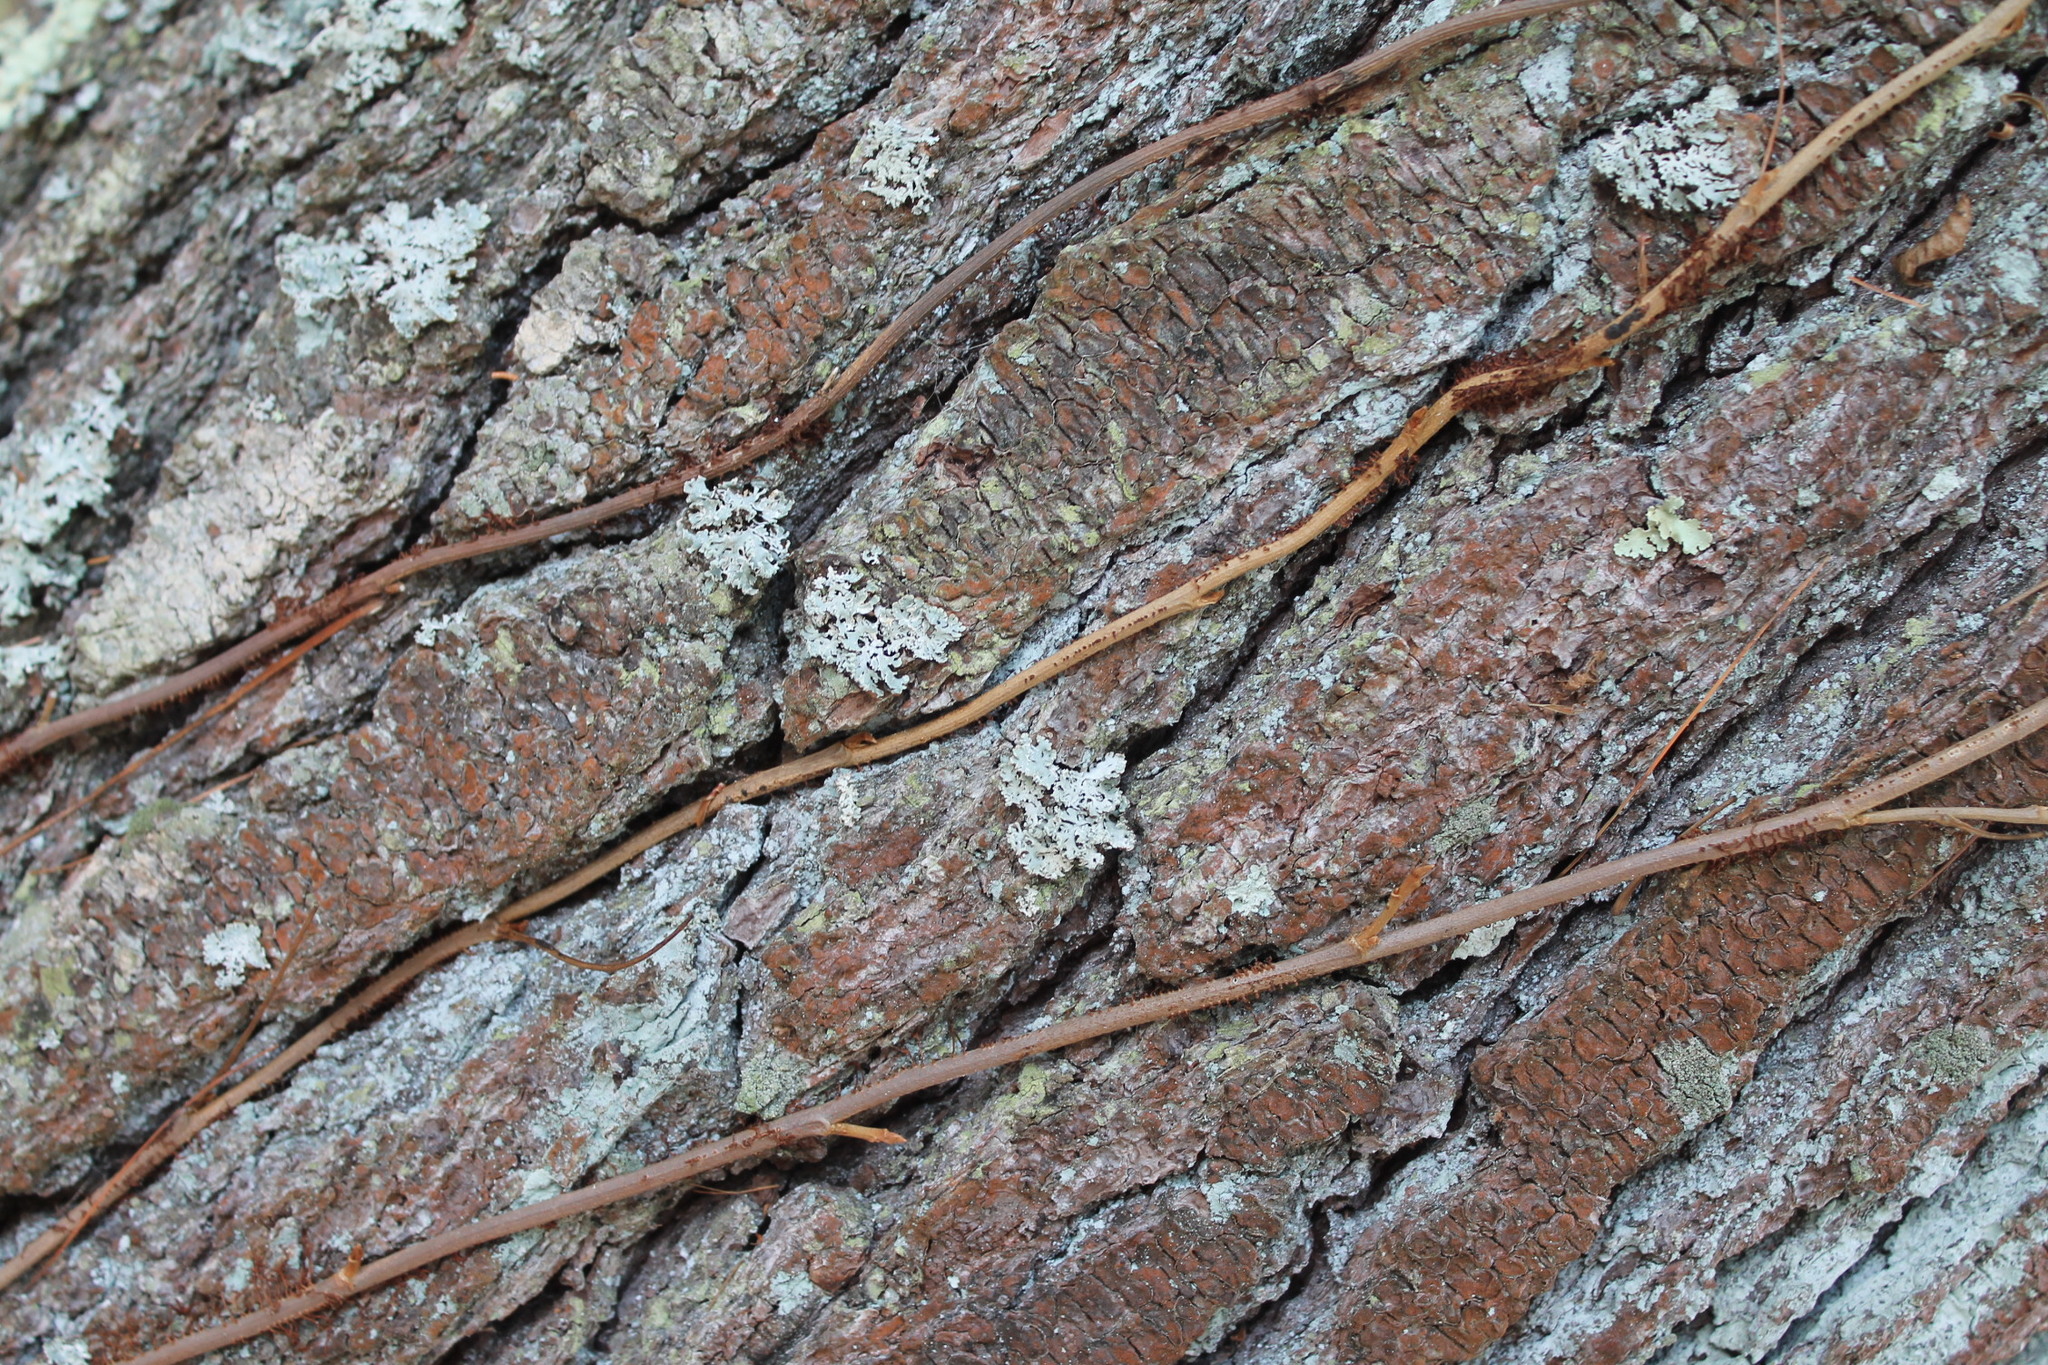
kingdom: Plantae
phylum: Tracheophyta
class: Magnoliopsida
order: Sapindales
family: Anacardiaceae
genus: Toxicodendron
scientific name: Toxicodendron radicans
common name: Poison ivy
